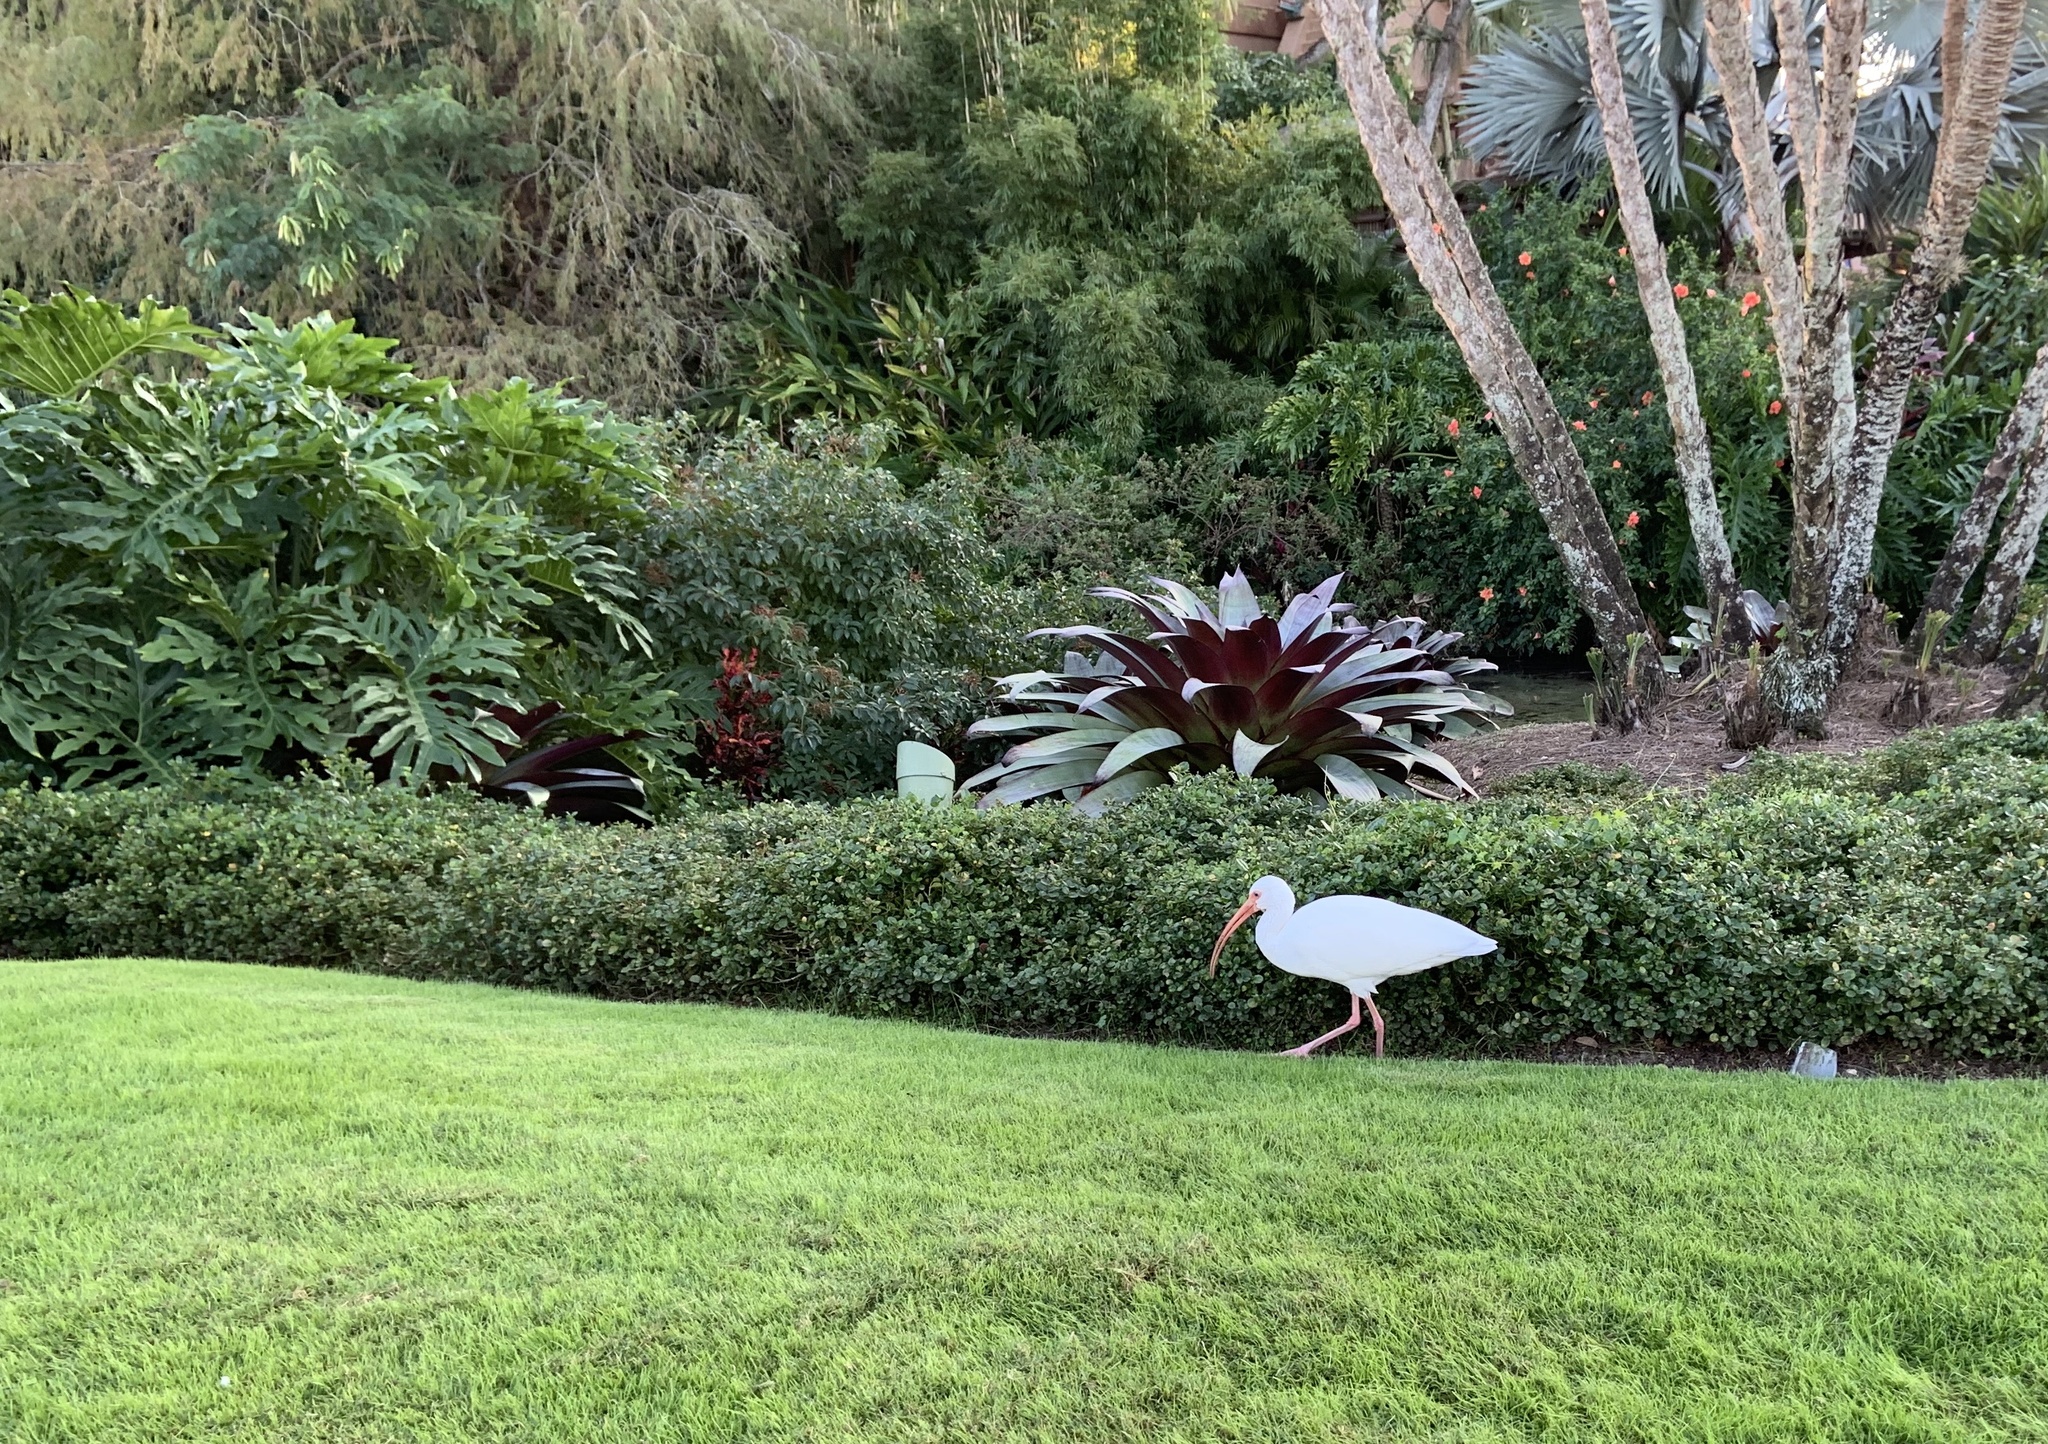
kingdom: Animalia
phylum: Chordata
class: Aves
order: Pelecaniformes
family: Threskiornithidae
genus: Eudocimus
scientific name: Eudocimus albus
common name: White ibis
